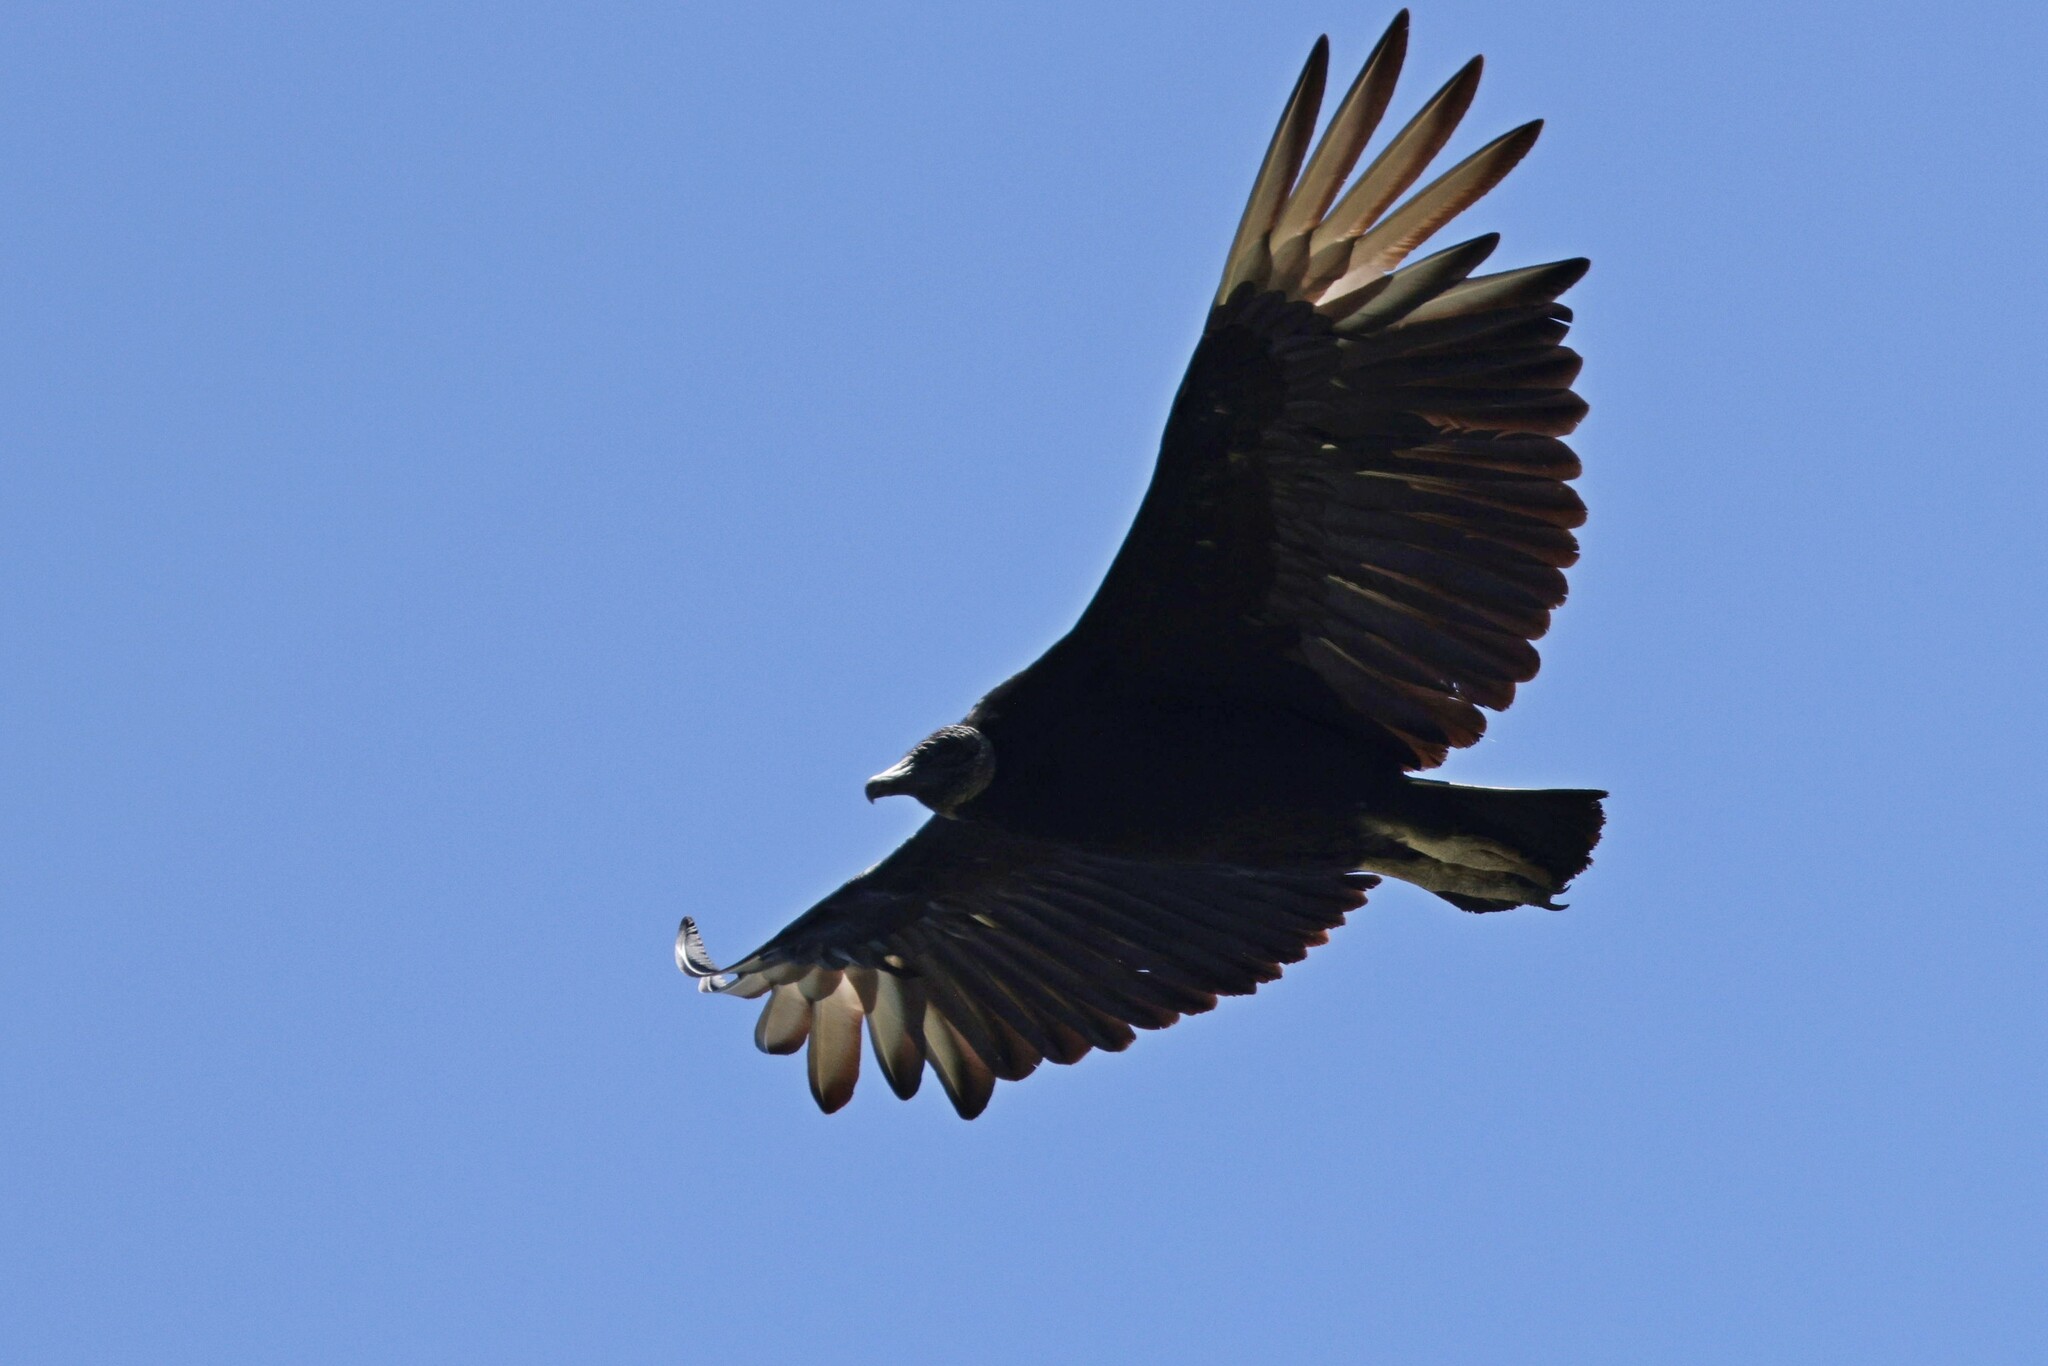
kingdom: Animalia
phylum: Chordata
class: Aves
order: Accipitriformes
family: Cathartidae
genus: Coragyps
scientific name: Coragyps atratus
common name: Black vulture
